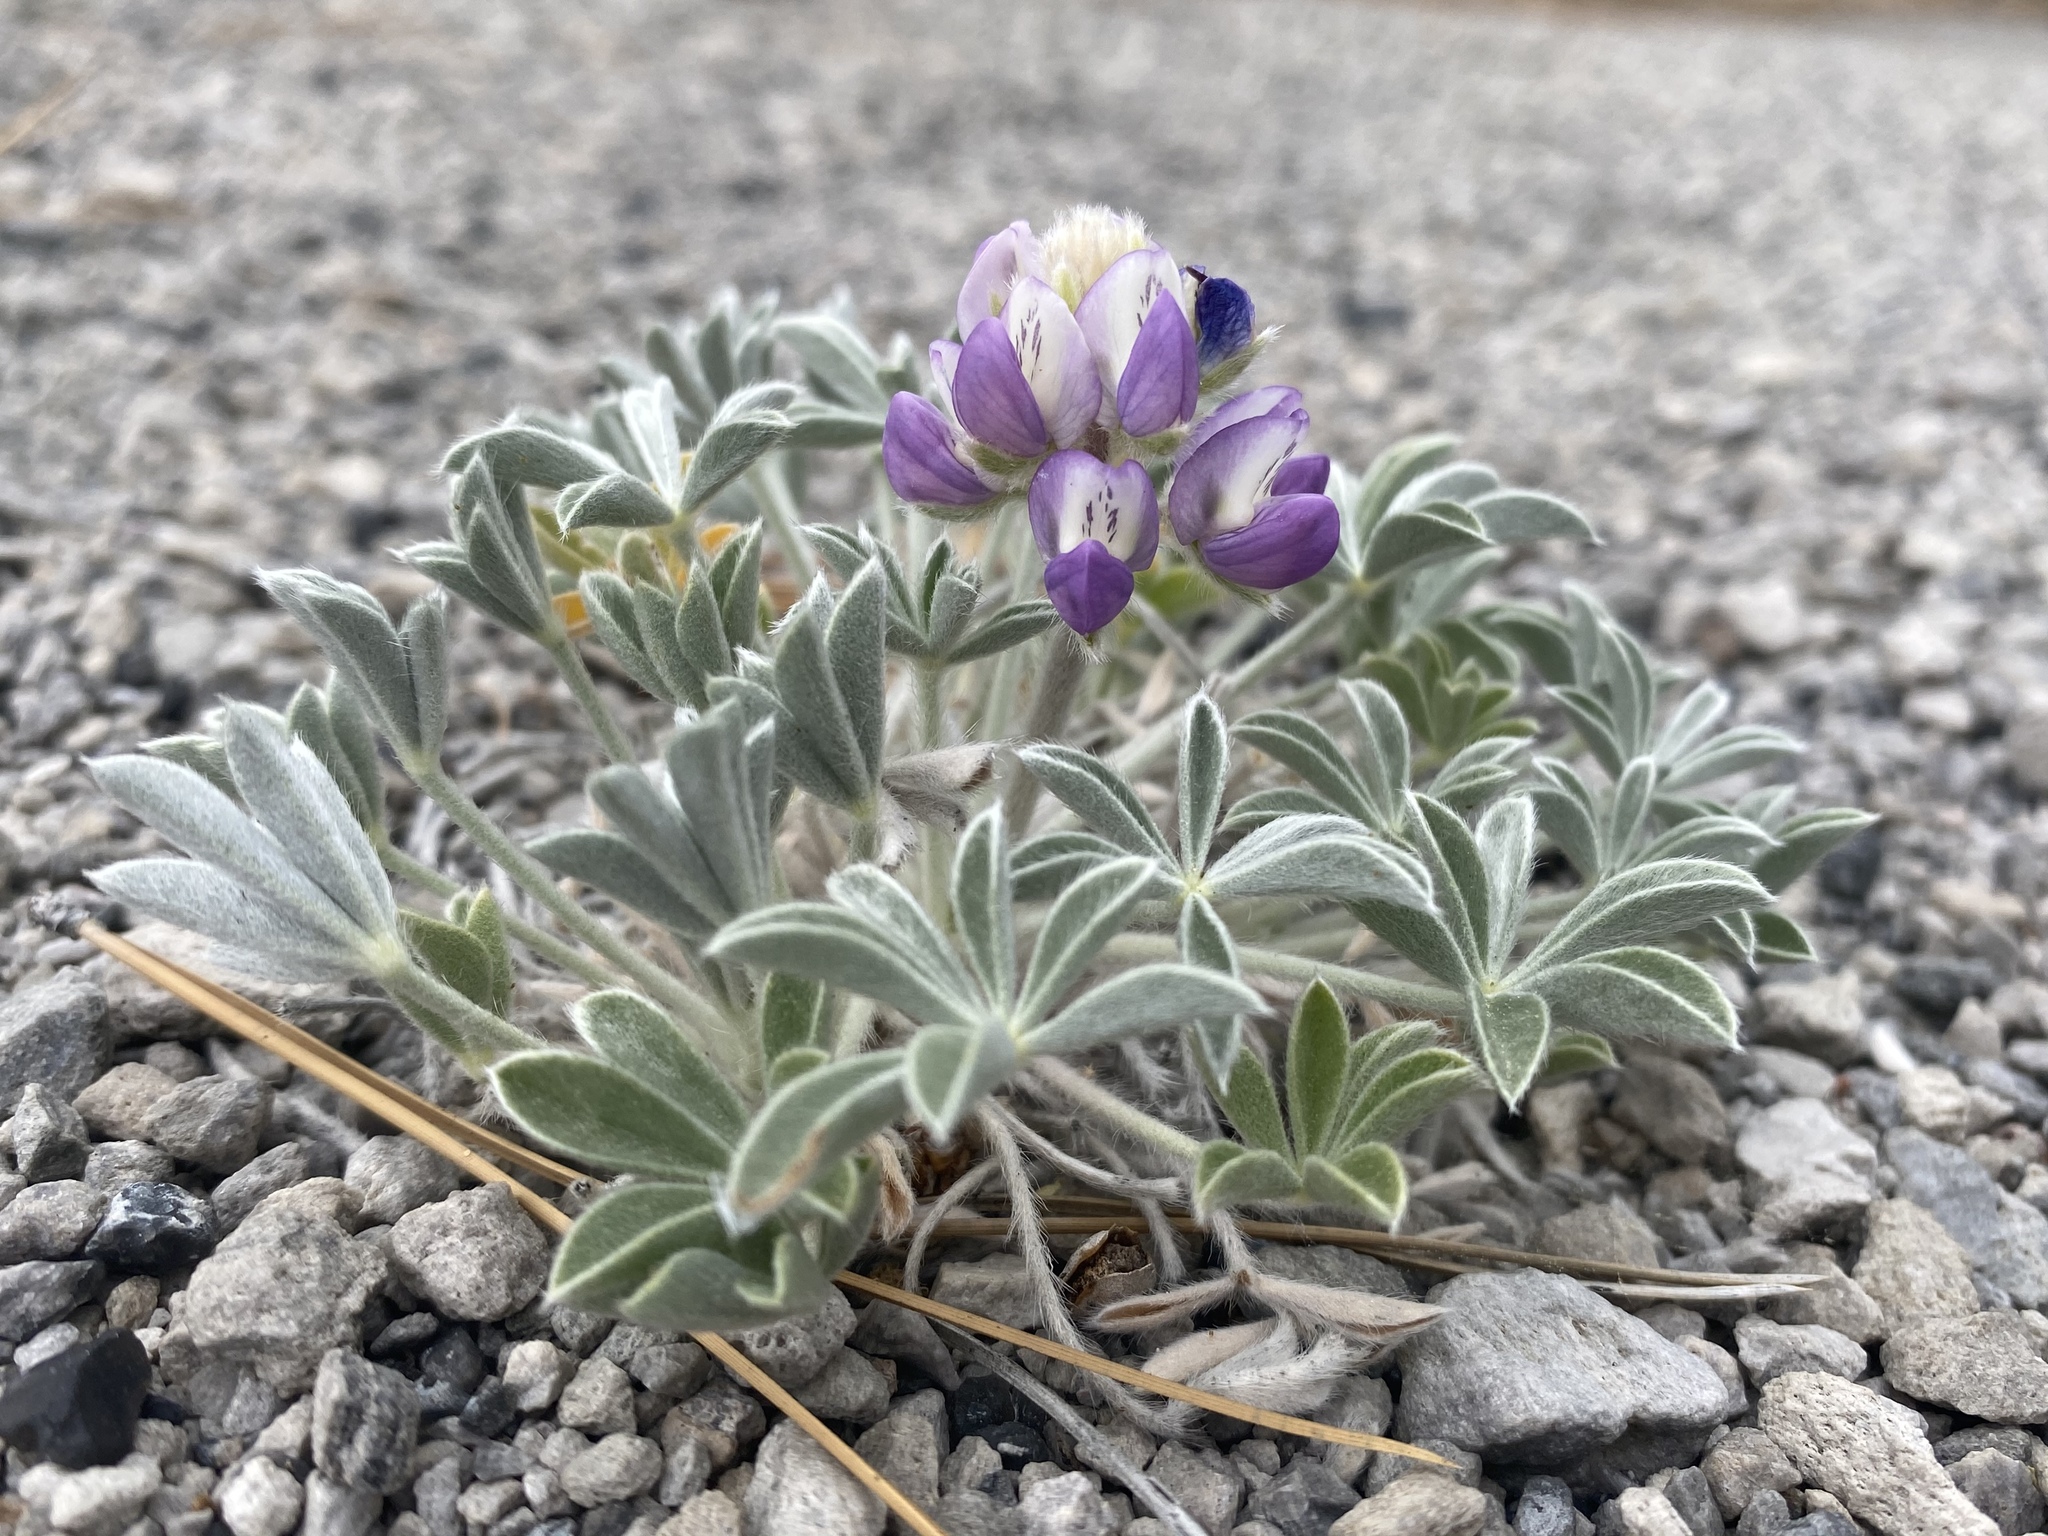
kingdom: Plantae
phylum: Tracheophyta
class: Magnoliopsida
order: Fabales
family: Fabaceae
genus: Lupinus
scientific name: Lupinus duranii
